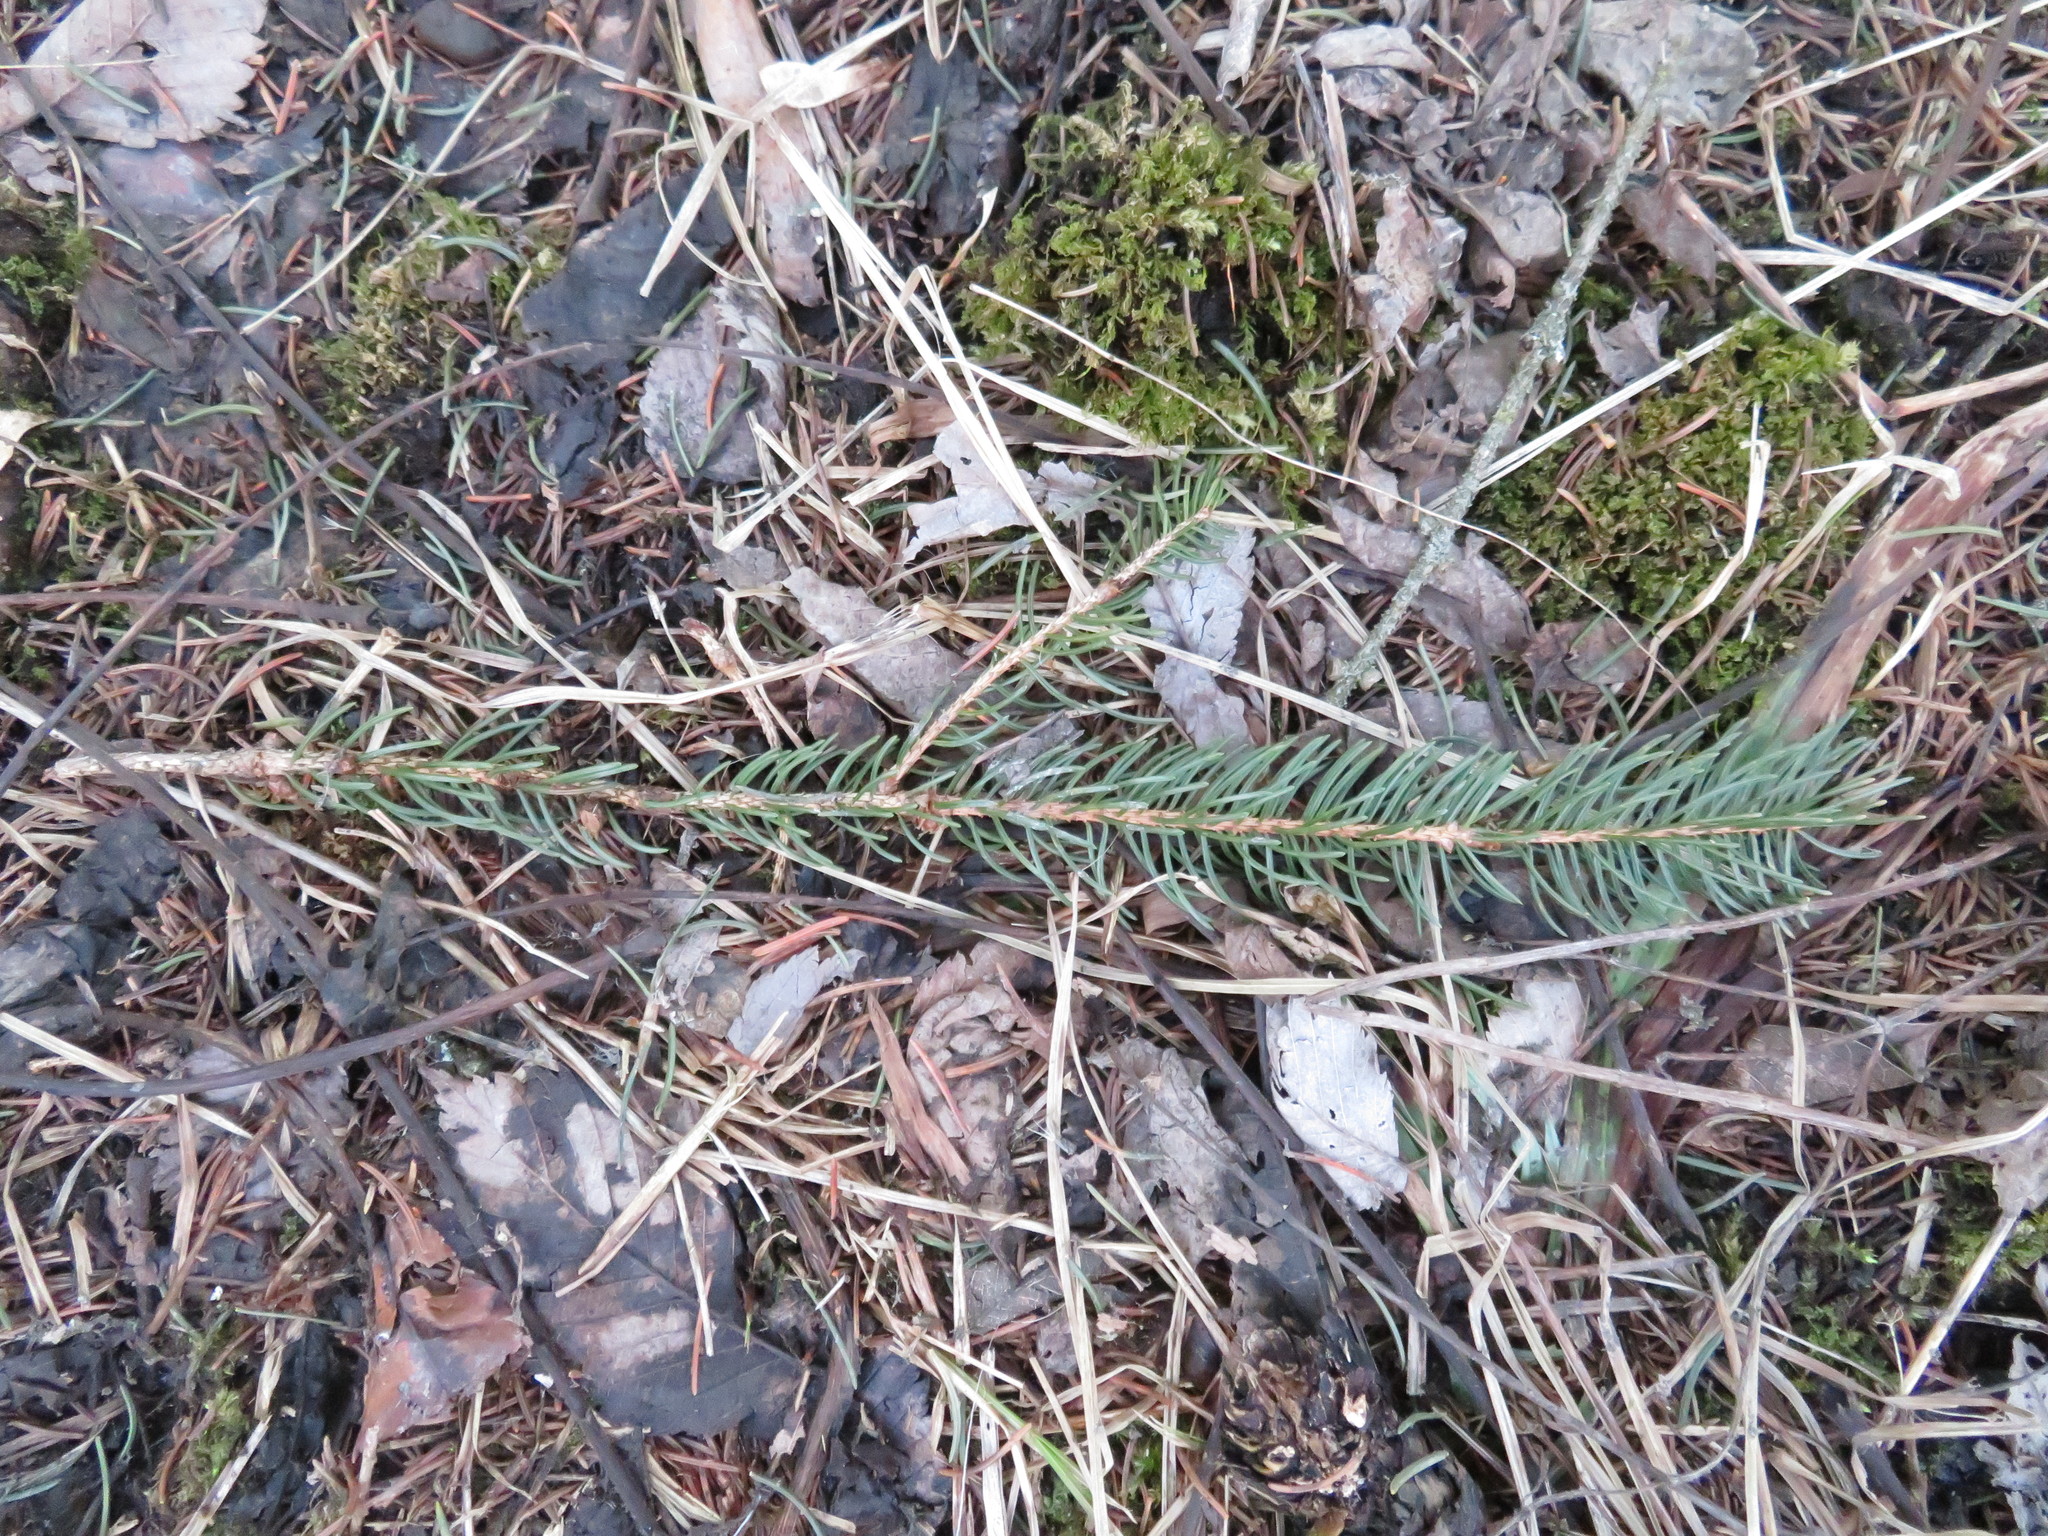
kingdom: Plantae
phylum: Tracheophyta
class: Pinopsida
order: Pinales
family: Pinaceae
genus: Picea
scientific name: Picea abies
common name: Norway spruce
